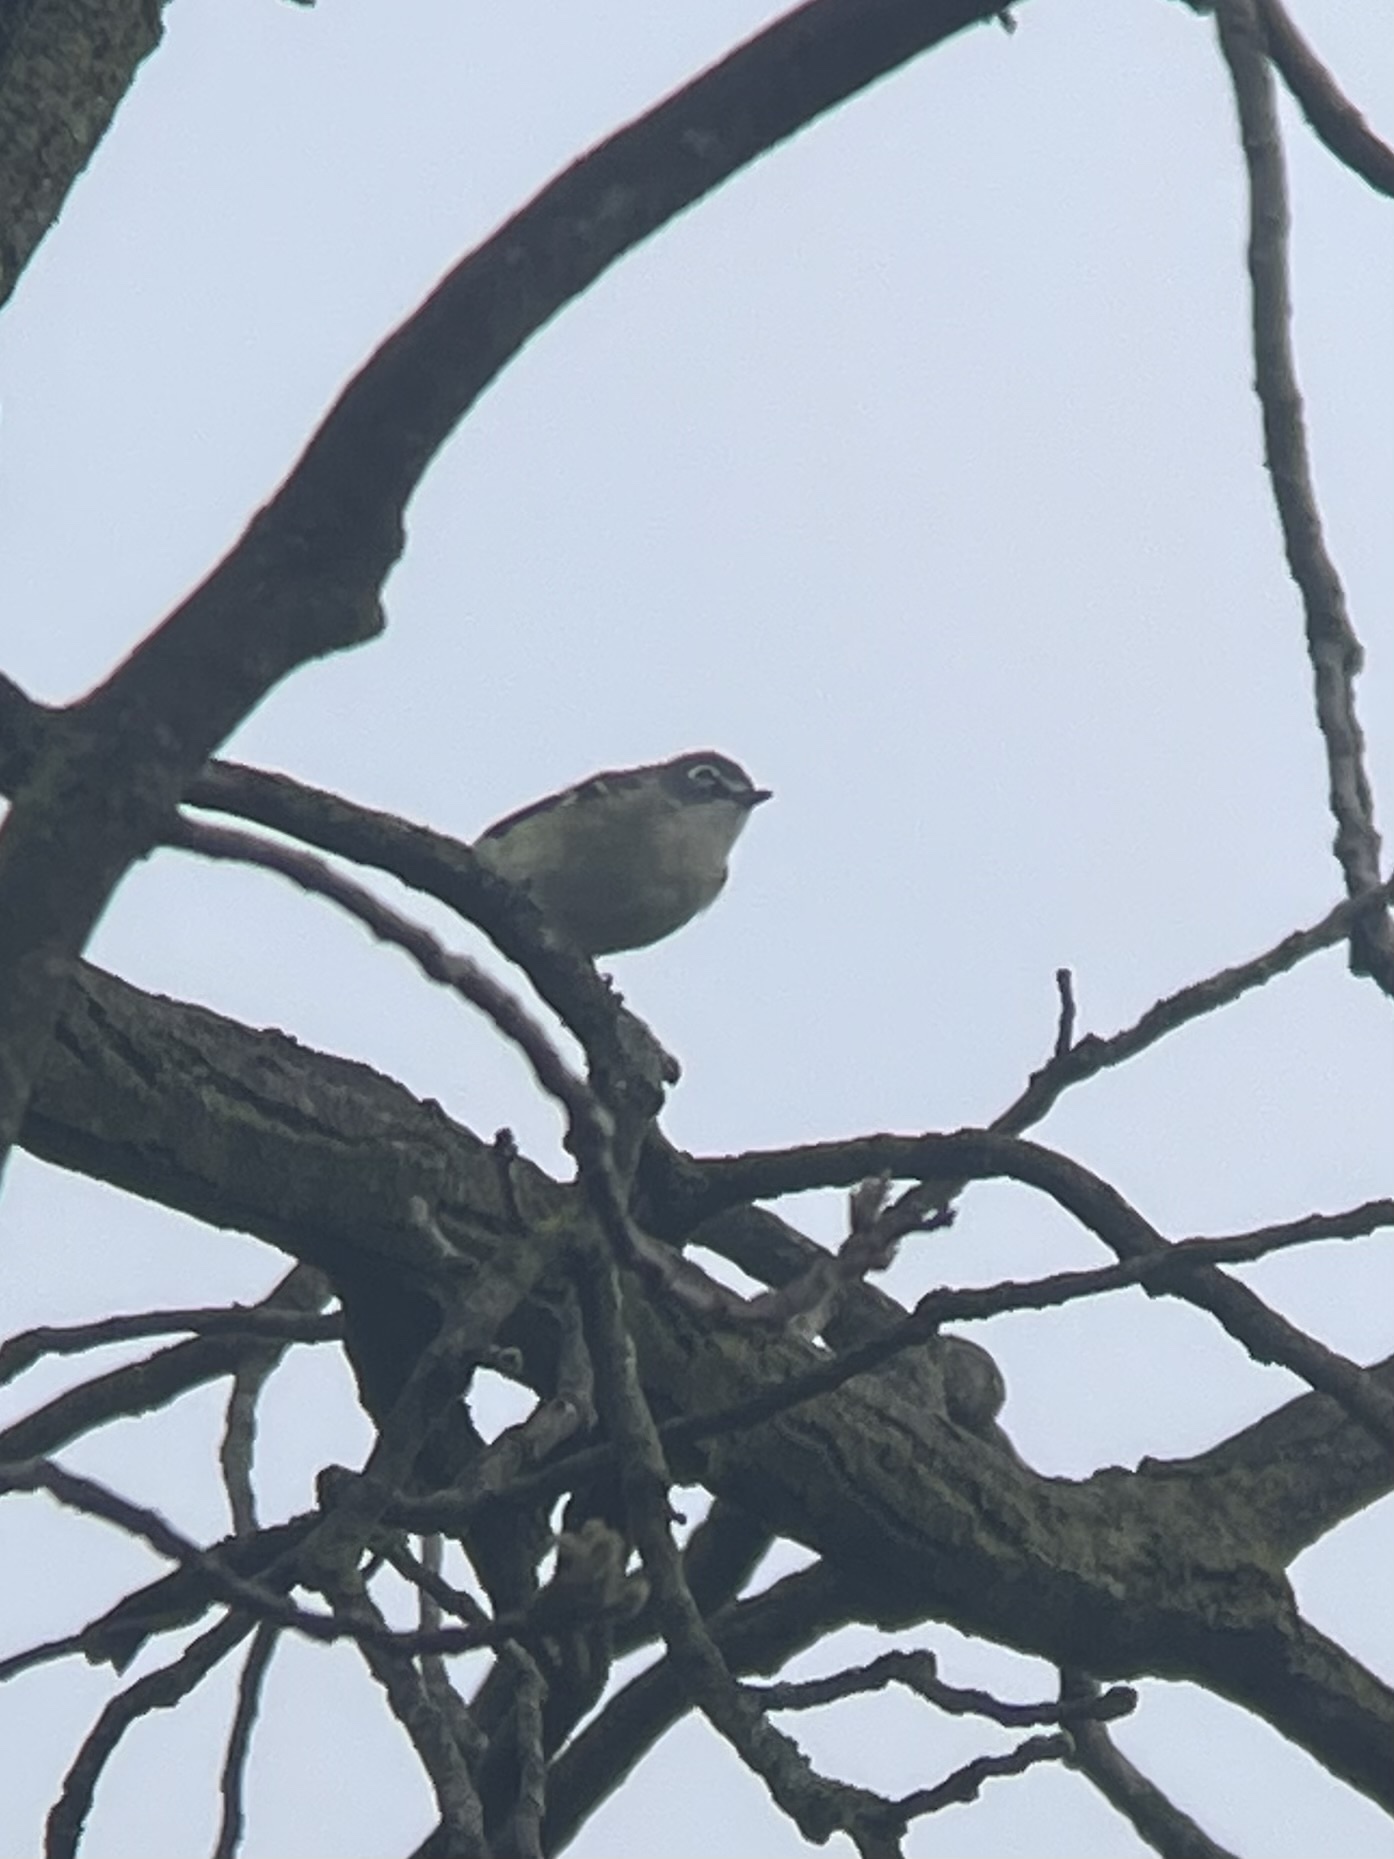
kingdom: Animalia
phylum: Chordata
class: Aves
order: Passeriformes
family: Vireonidae
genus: Vireo
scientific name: Vireo solitarius
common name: Blue-headed vireo
